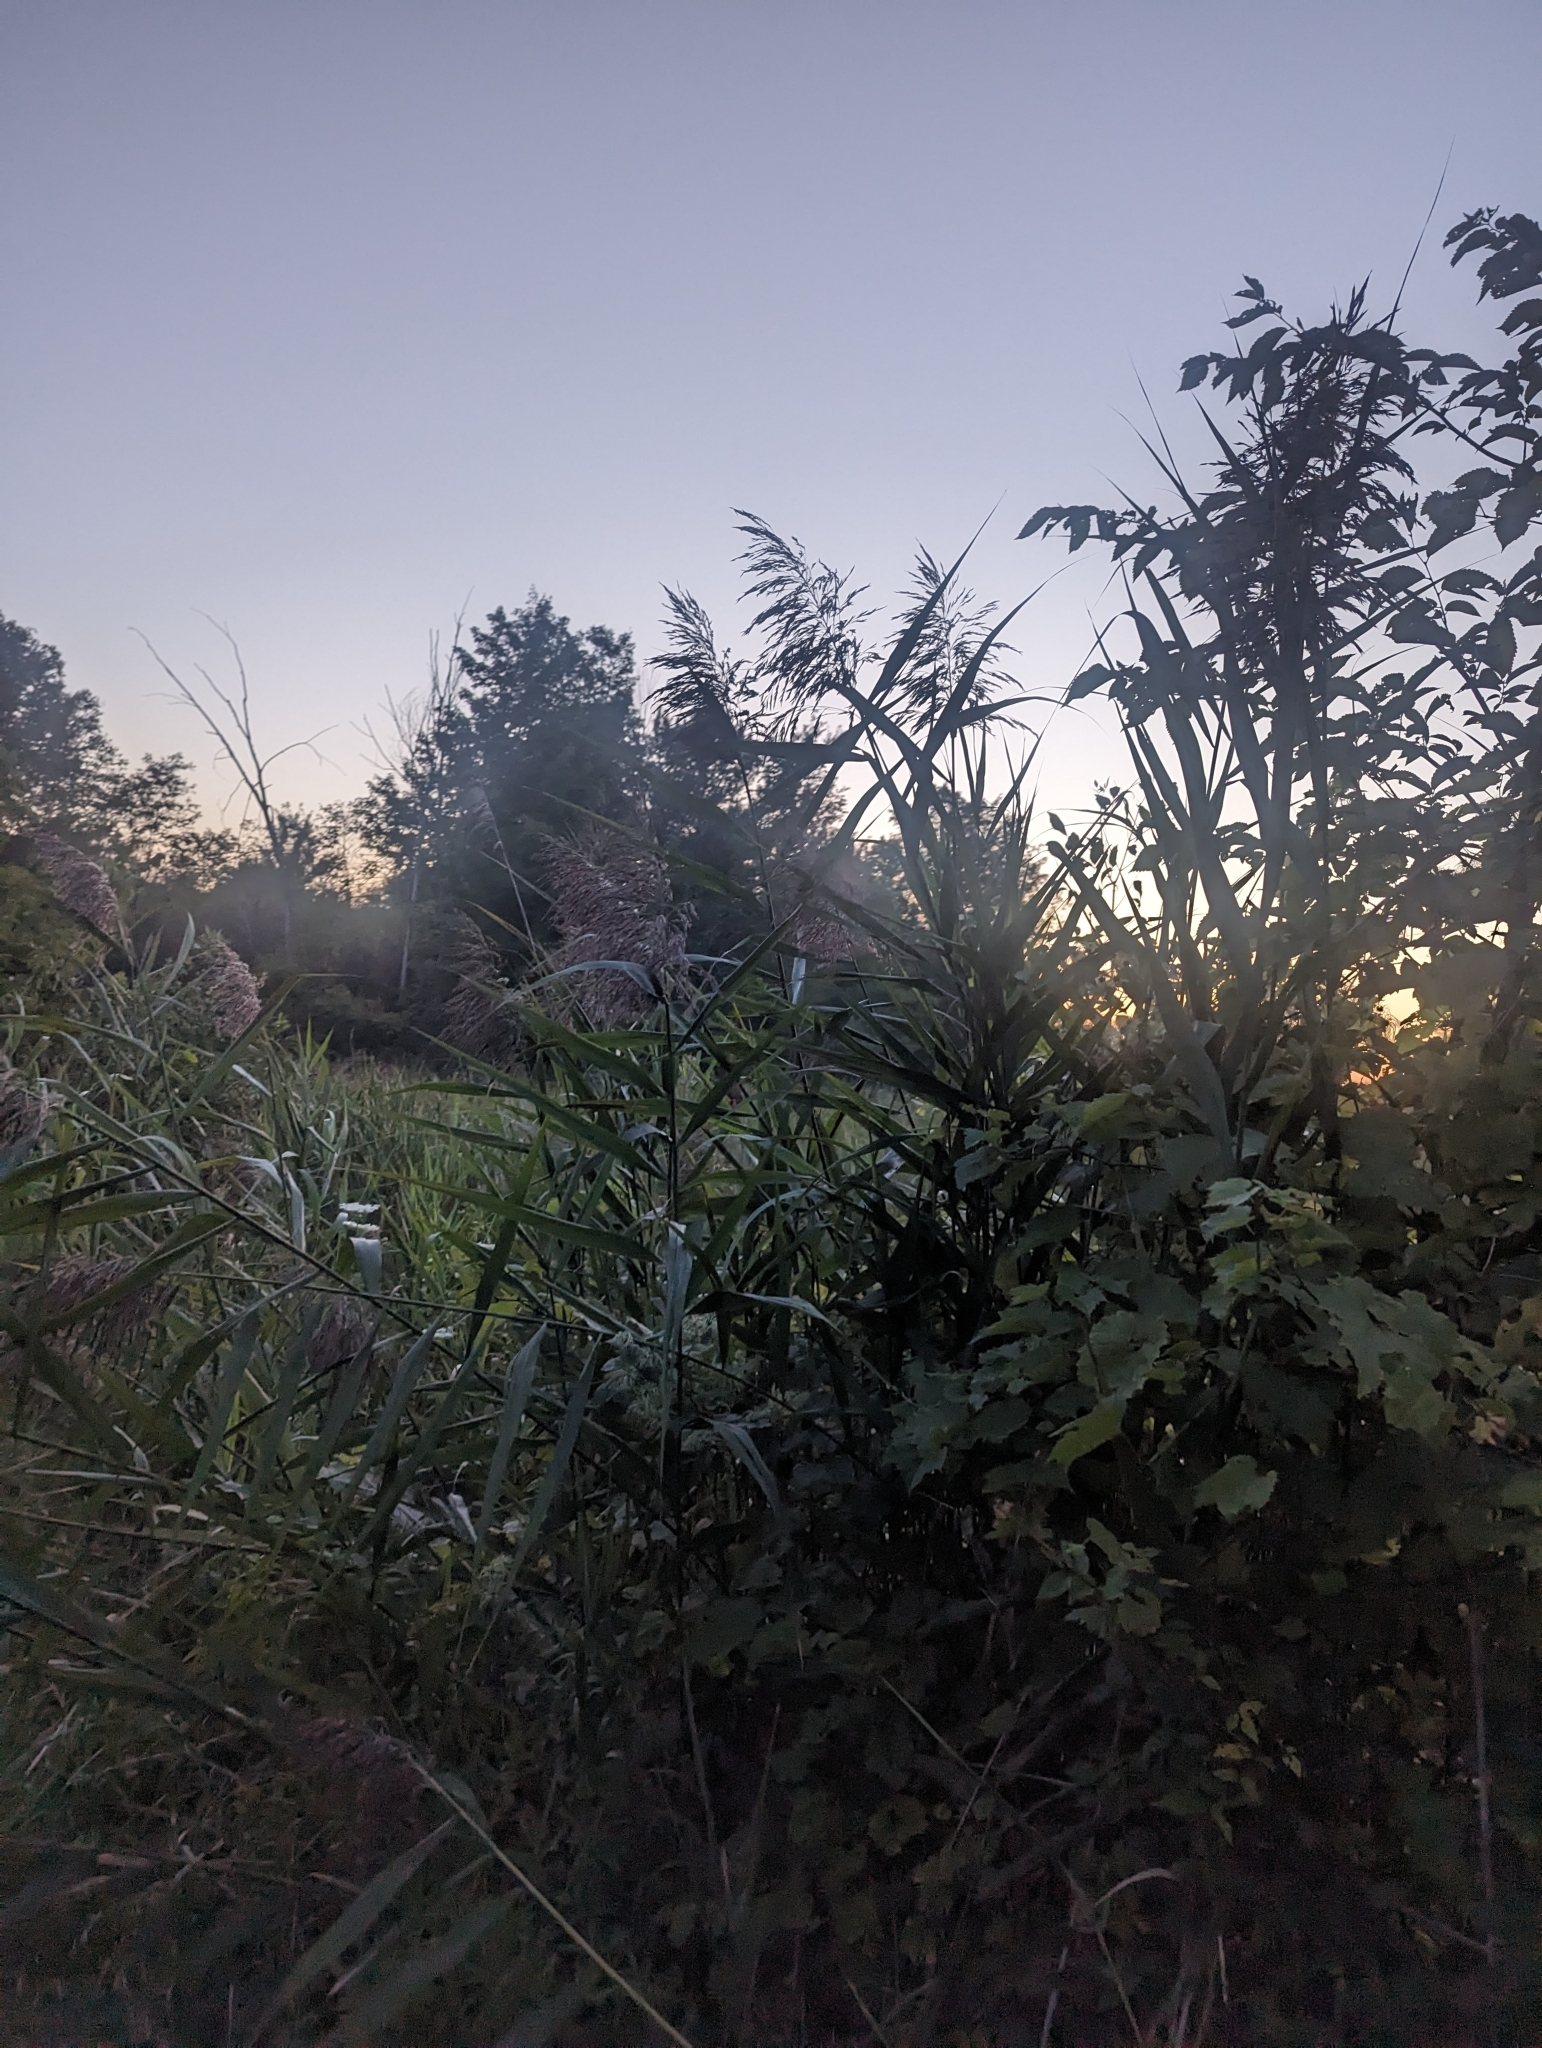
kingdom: Plantae
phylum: Tracheophyta
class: Liliopsida
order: Poales
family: Poaceae
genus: Phragmites
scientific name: Phragmites australis
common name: Common reed
